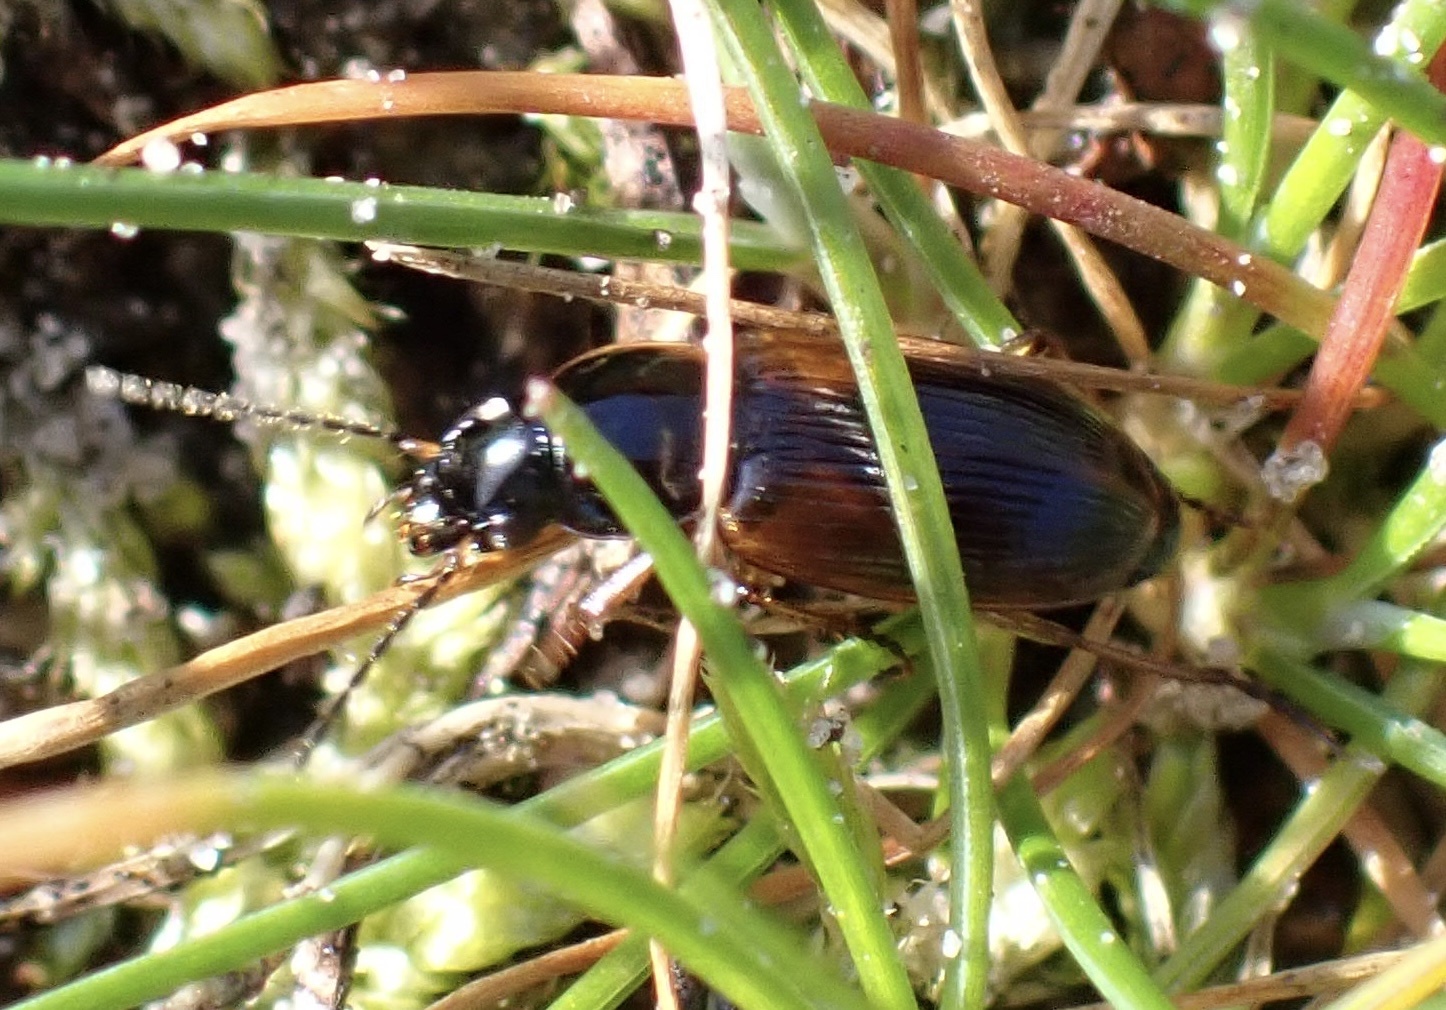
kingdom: Animalia
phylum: Arthropoda
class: Insecta
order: Coleoptera
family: Carabidae
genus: Stenolophus
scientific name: Stenolophus mixtus
